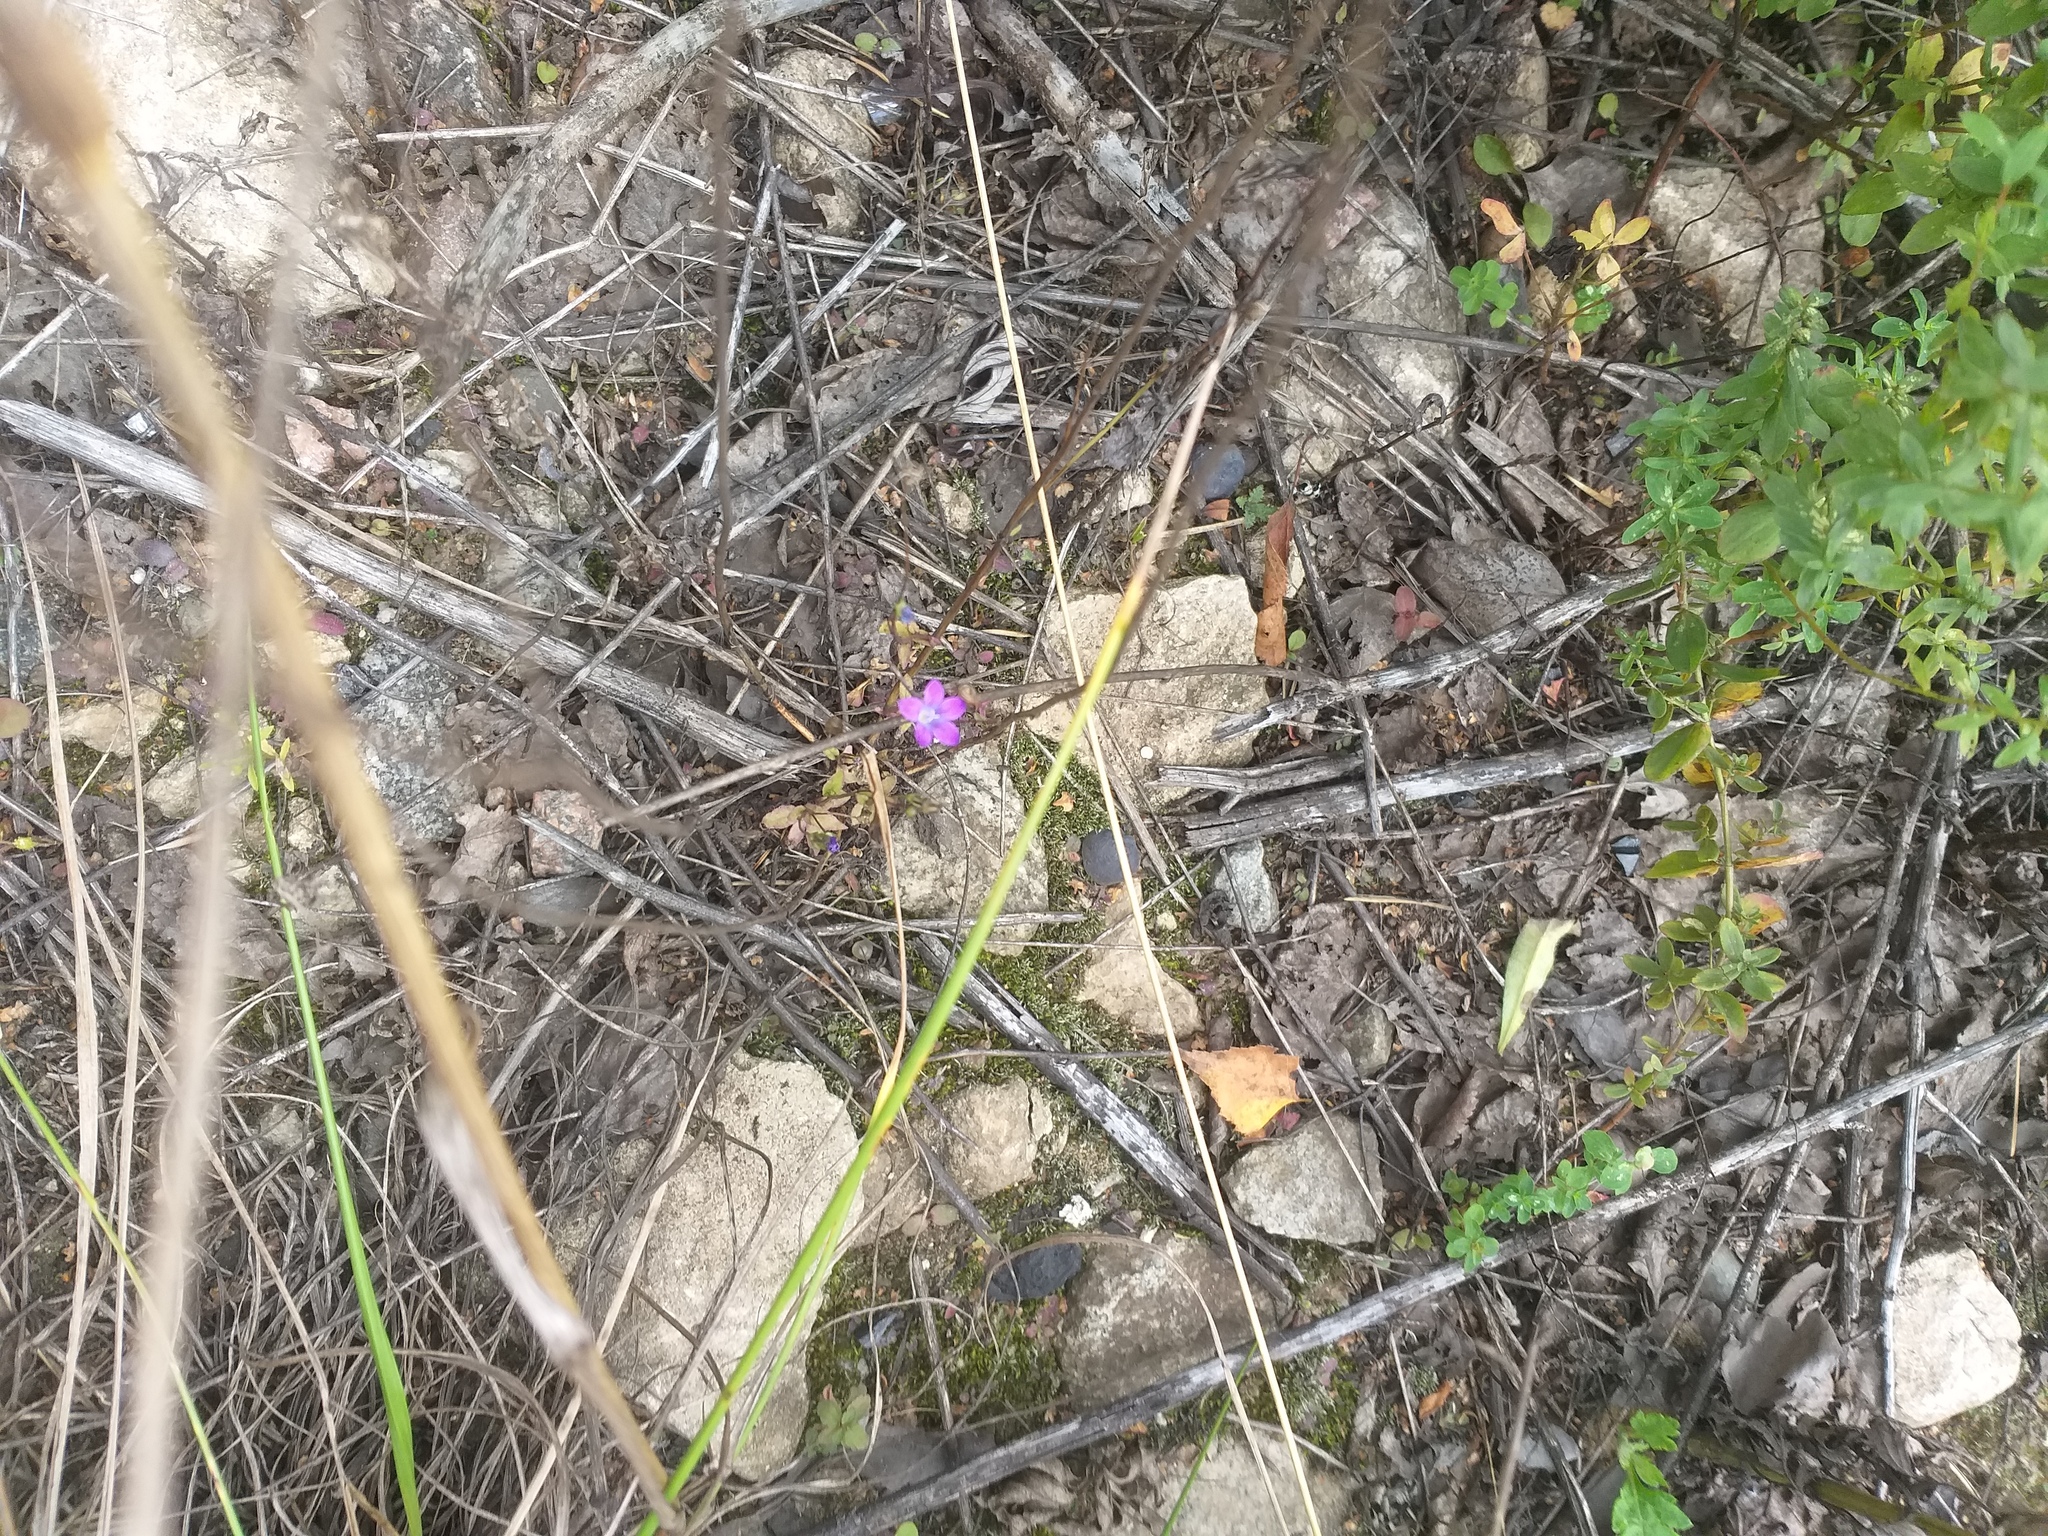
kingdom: Plantae
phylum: Tracheophyta
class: Magnoliopsida
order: Asterales
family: Campanulaceae
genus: Campanula
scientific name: Campanula patula
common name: Spreading bellflower
